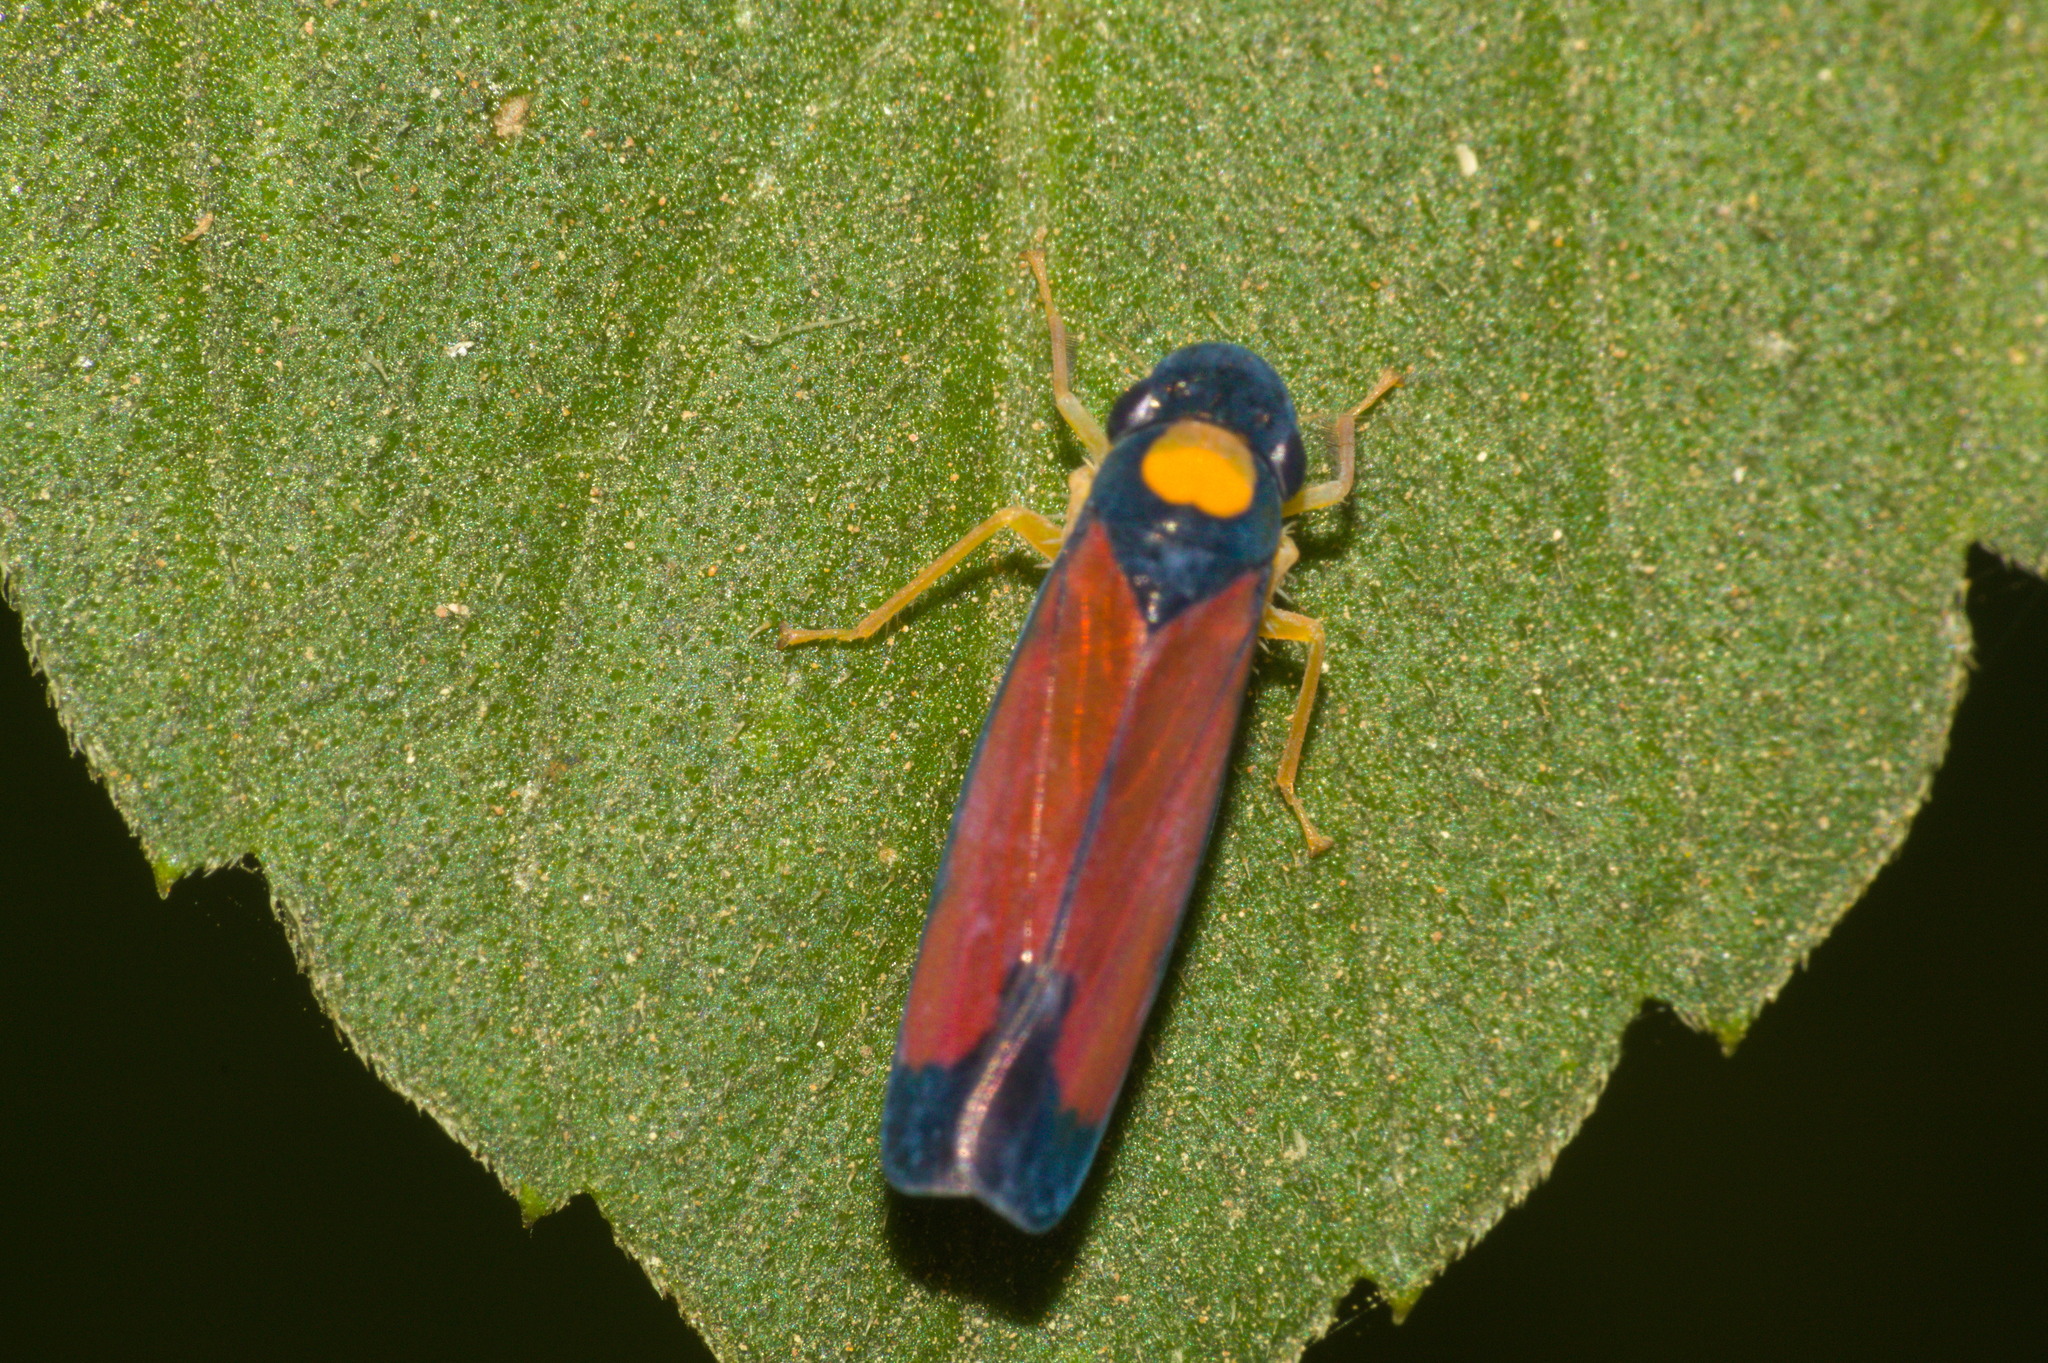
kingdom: Animalia
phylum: Arthropoda
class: Insecta
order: Hemiptera
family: Cicadellidae
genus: Erythrogonia
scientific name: Erythrogonia victori
